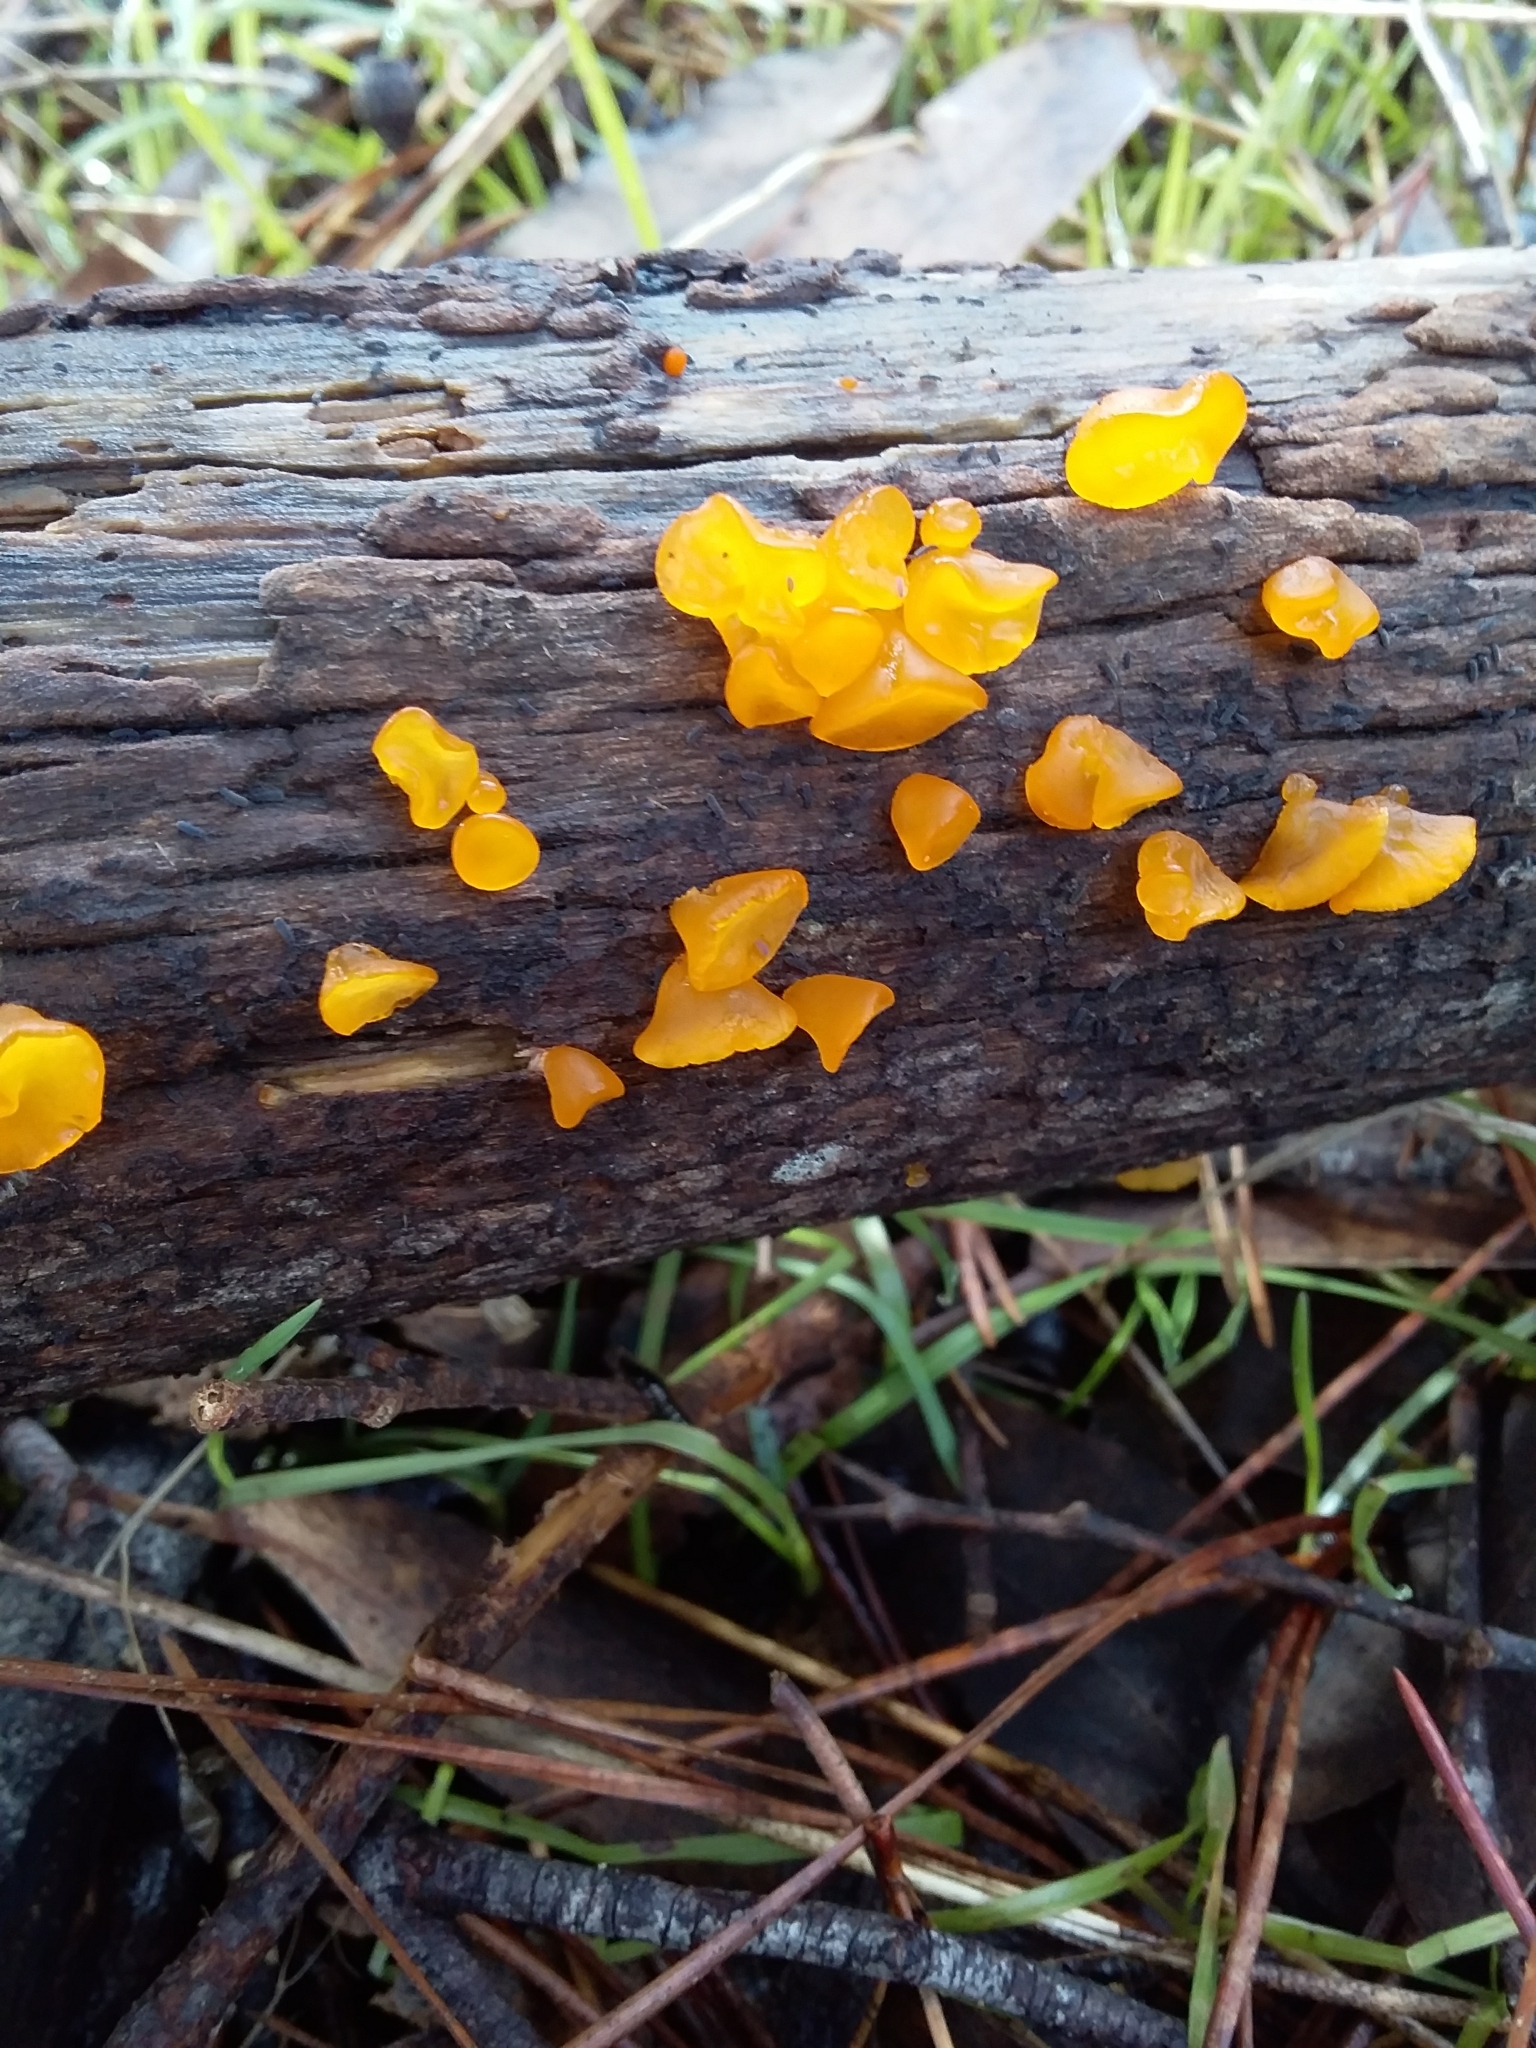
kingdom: Fungi
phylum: Basidiomycota
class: Dacrymycetes
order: Dacrymycetales
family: Dacrymycetaceae
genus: Heterotextus
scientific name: Heterotextus peziziformis
